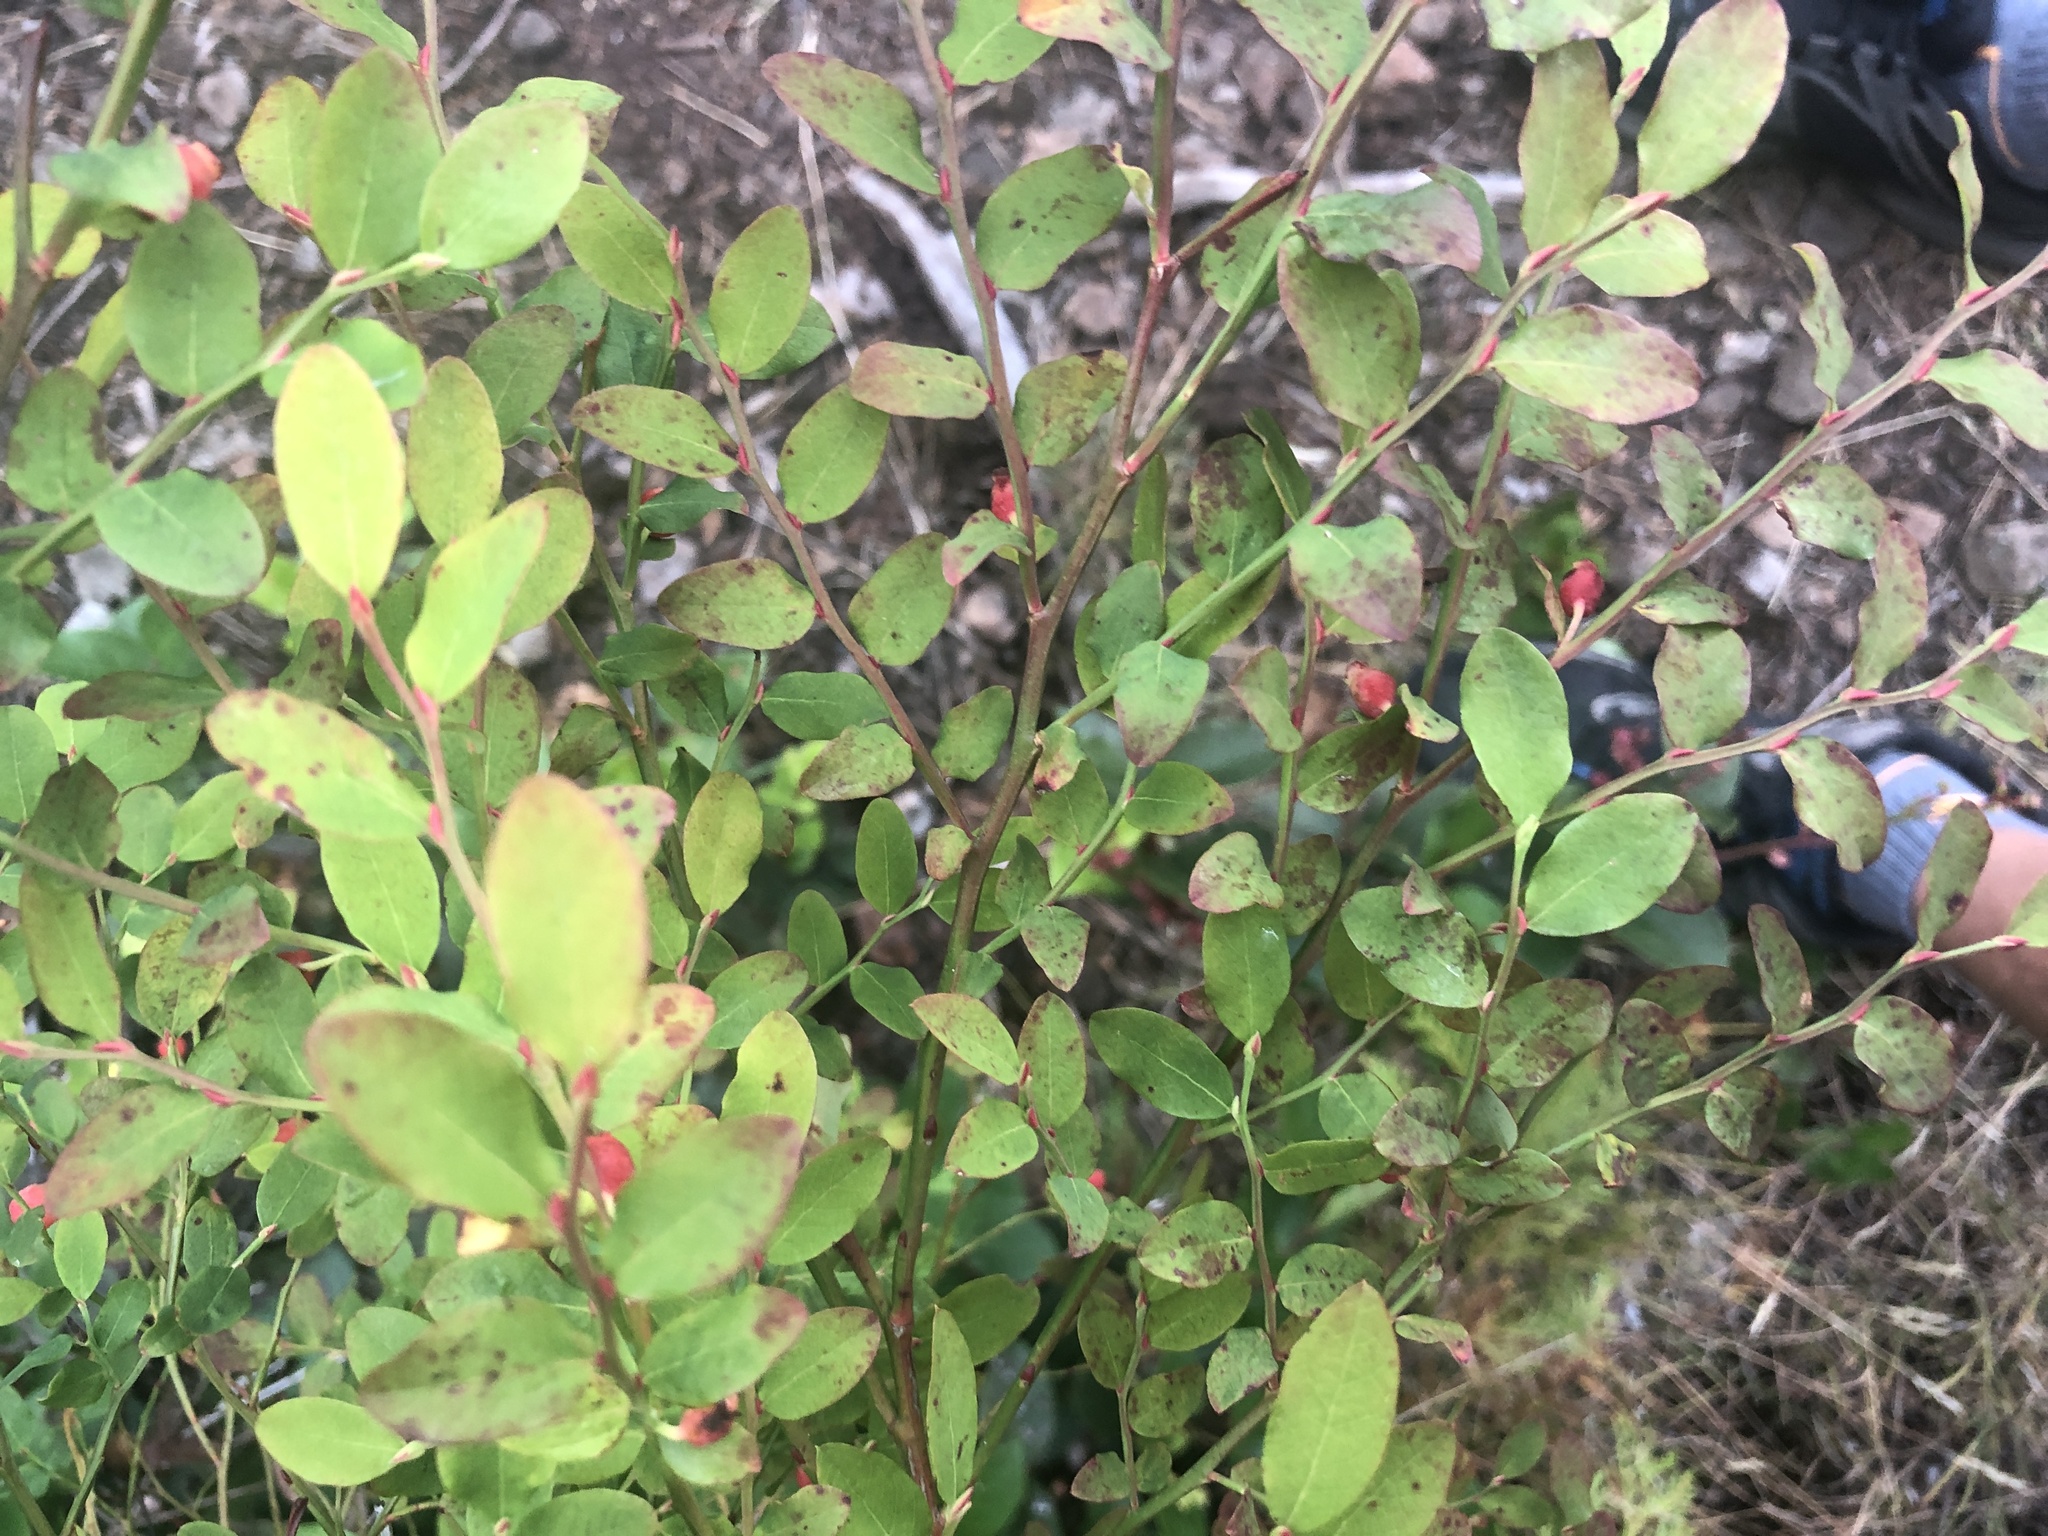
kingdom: Plantae
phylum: Tracheophyta
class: Magnoliopsida
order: Ericales
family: Ericaceae
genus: Vaccinium
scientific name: Vaccinium parvifolium
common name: Red-huckleberry
